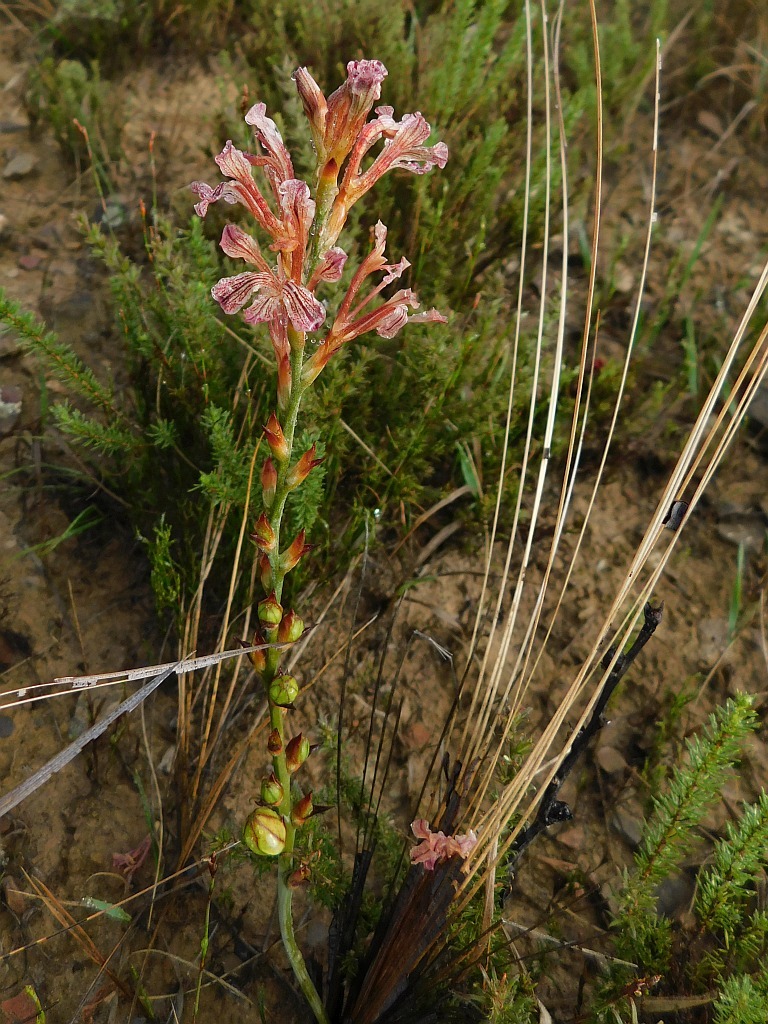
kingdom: Plantae
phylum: Tracheophyta
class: Liliopsida
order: Asparagales
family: Iridaceae
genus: Tritoniopsis
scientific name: Tritoniopsis elongata
